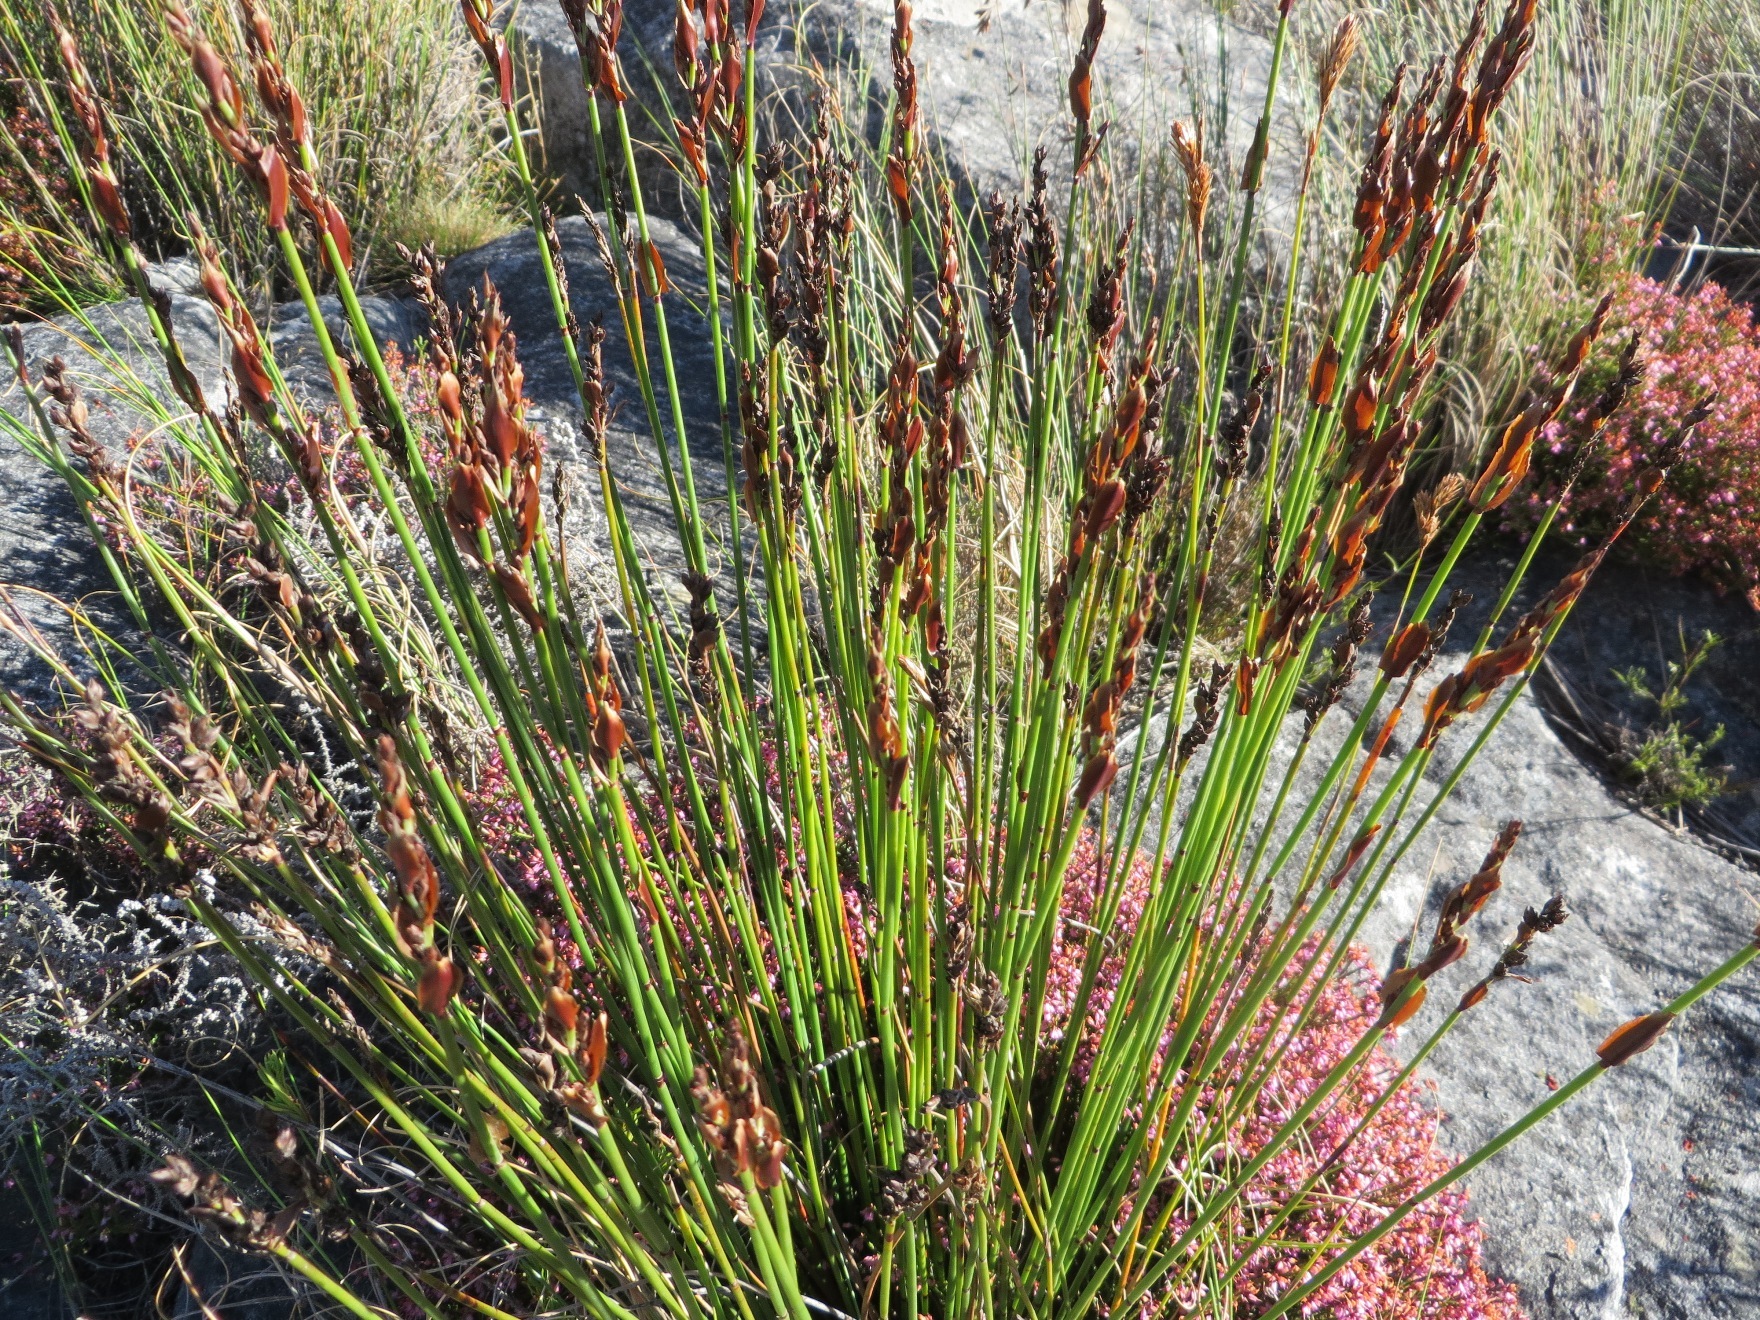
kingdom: Plantae
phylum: Tracheophyta
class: Liliopsida
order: Poales
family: Restionaceae
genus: Elegia
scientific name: Elegia ebracteata
